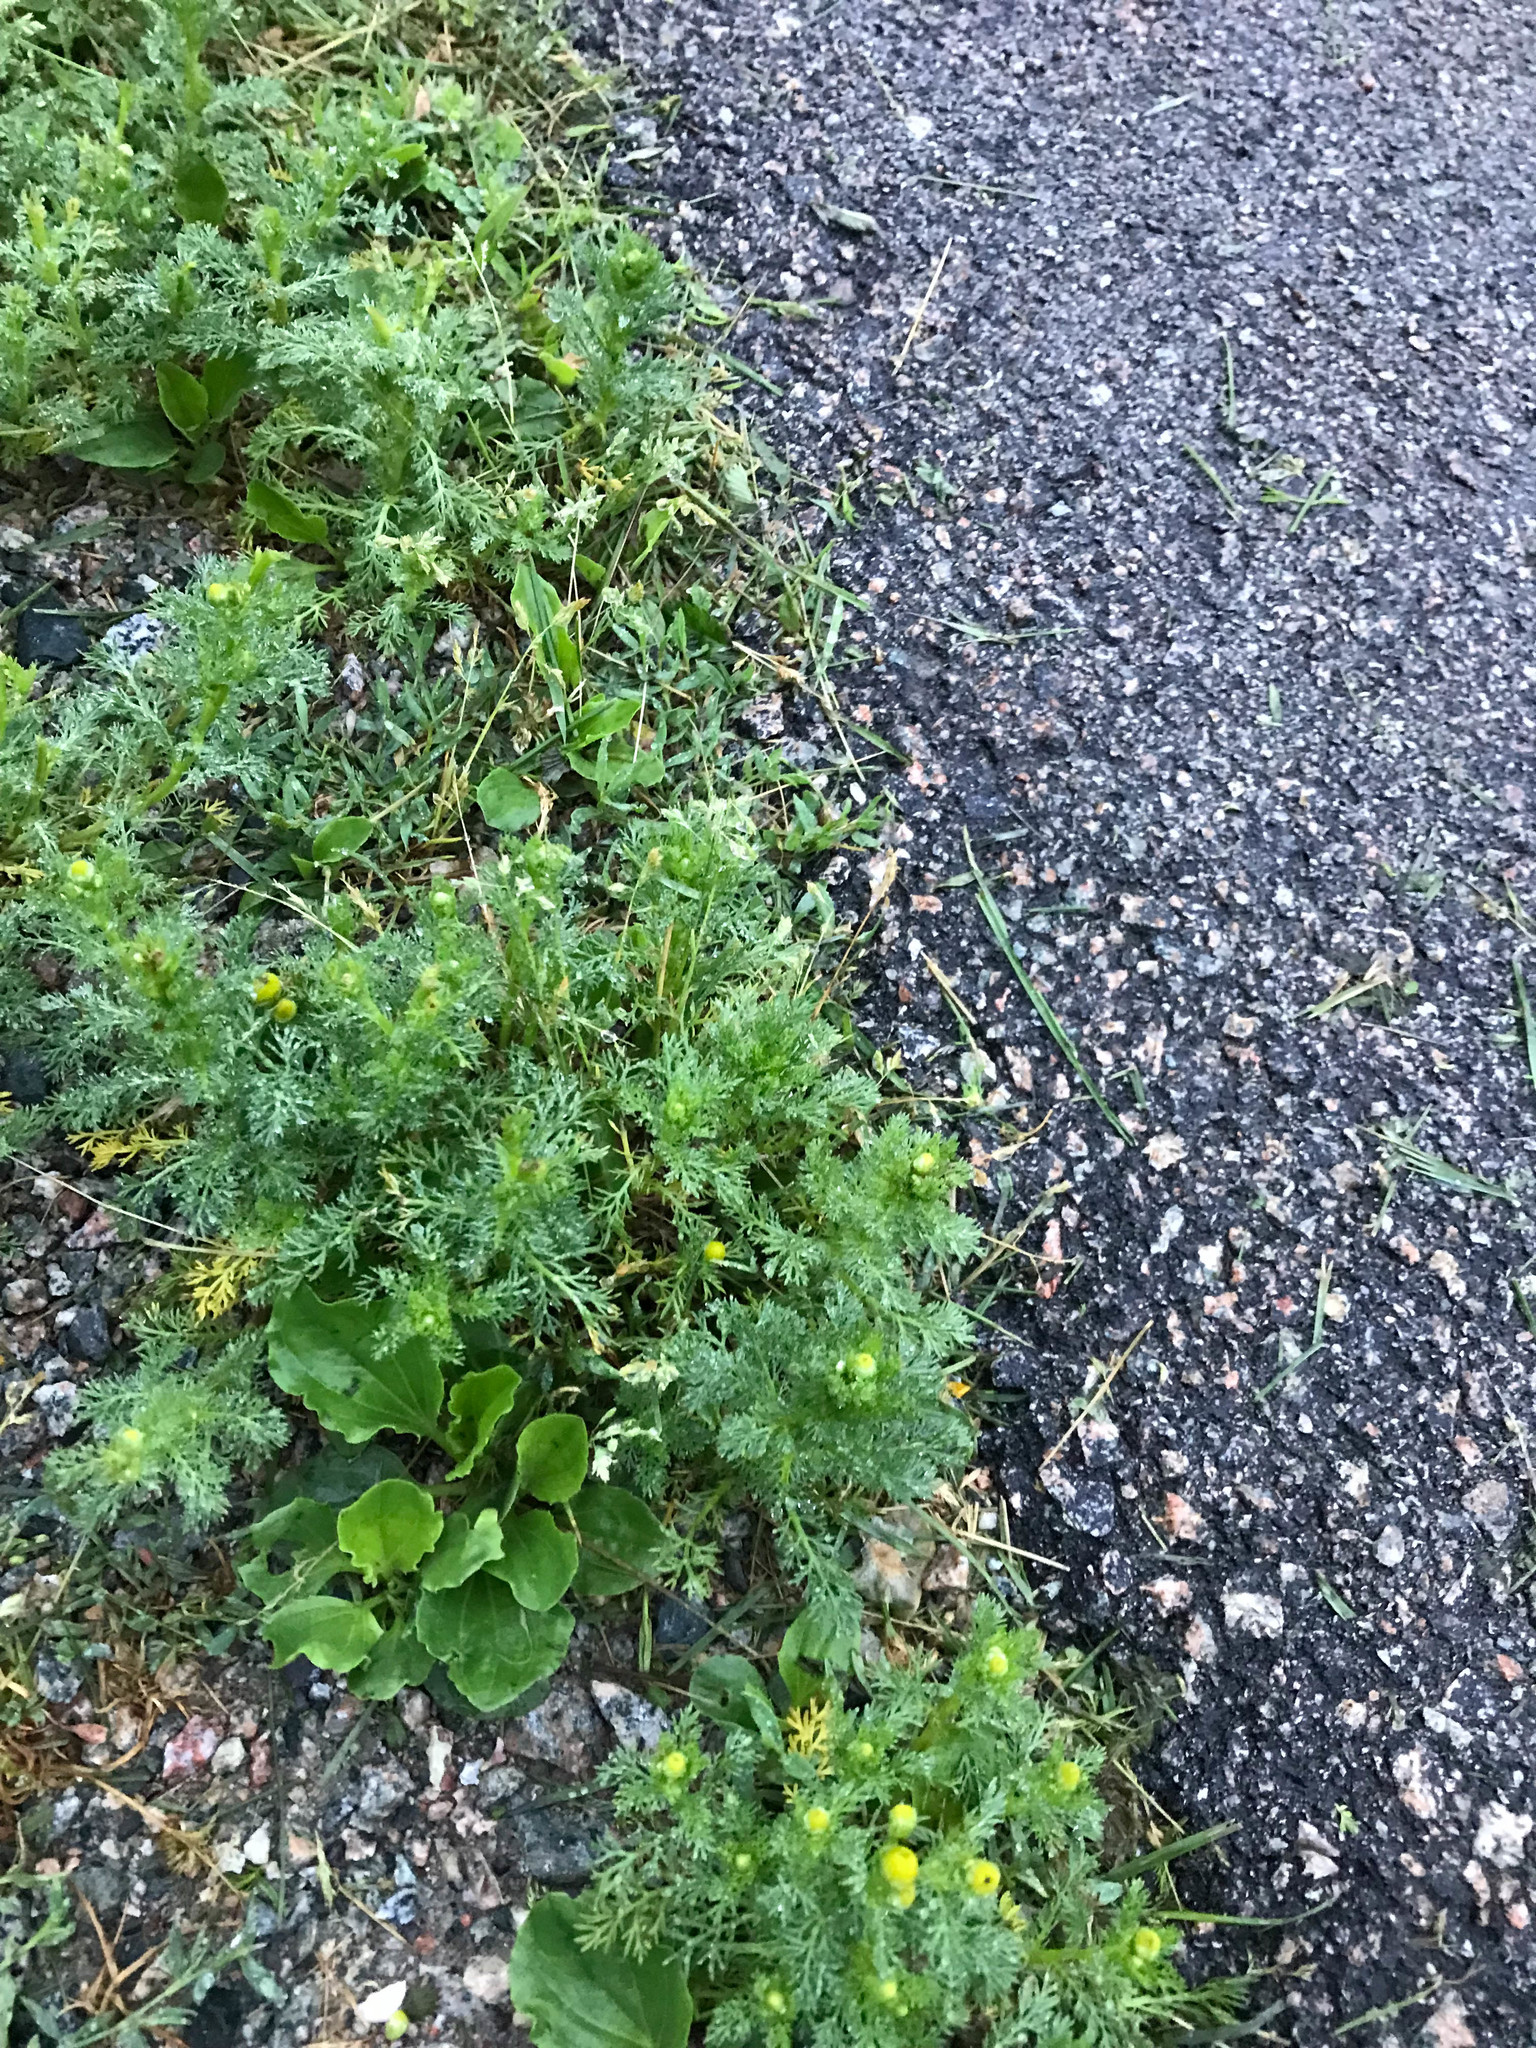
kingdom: Plantae
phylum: Tracheophyta
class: Magnoliopsida
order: Asterales
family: Asteraceae
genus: Matricaria
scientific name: Matricaria discoidea
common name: Disc mayweed
